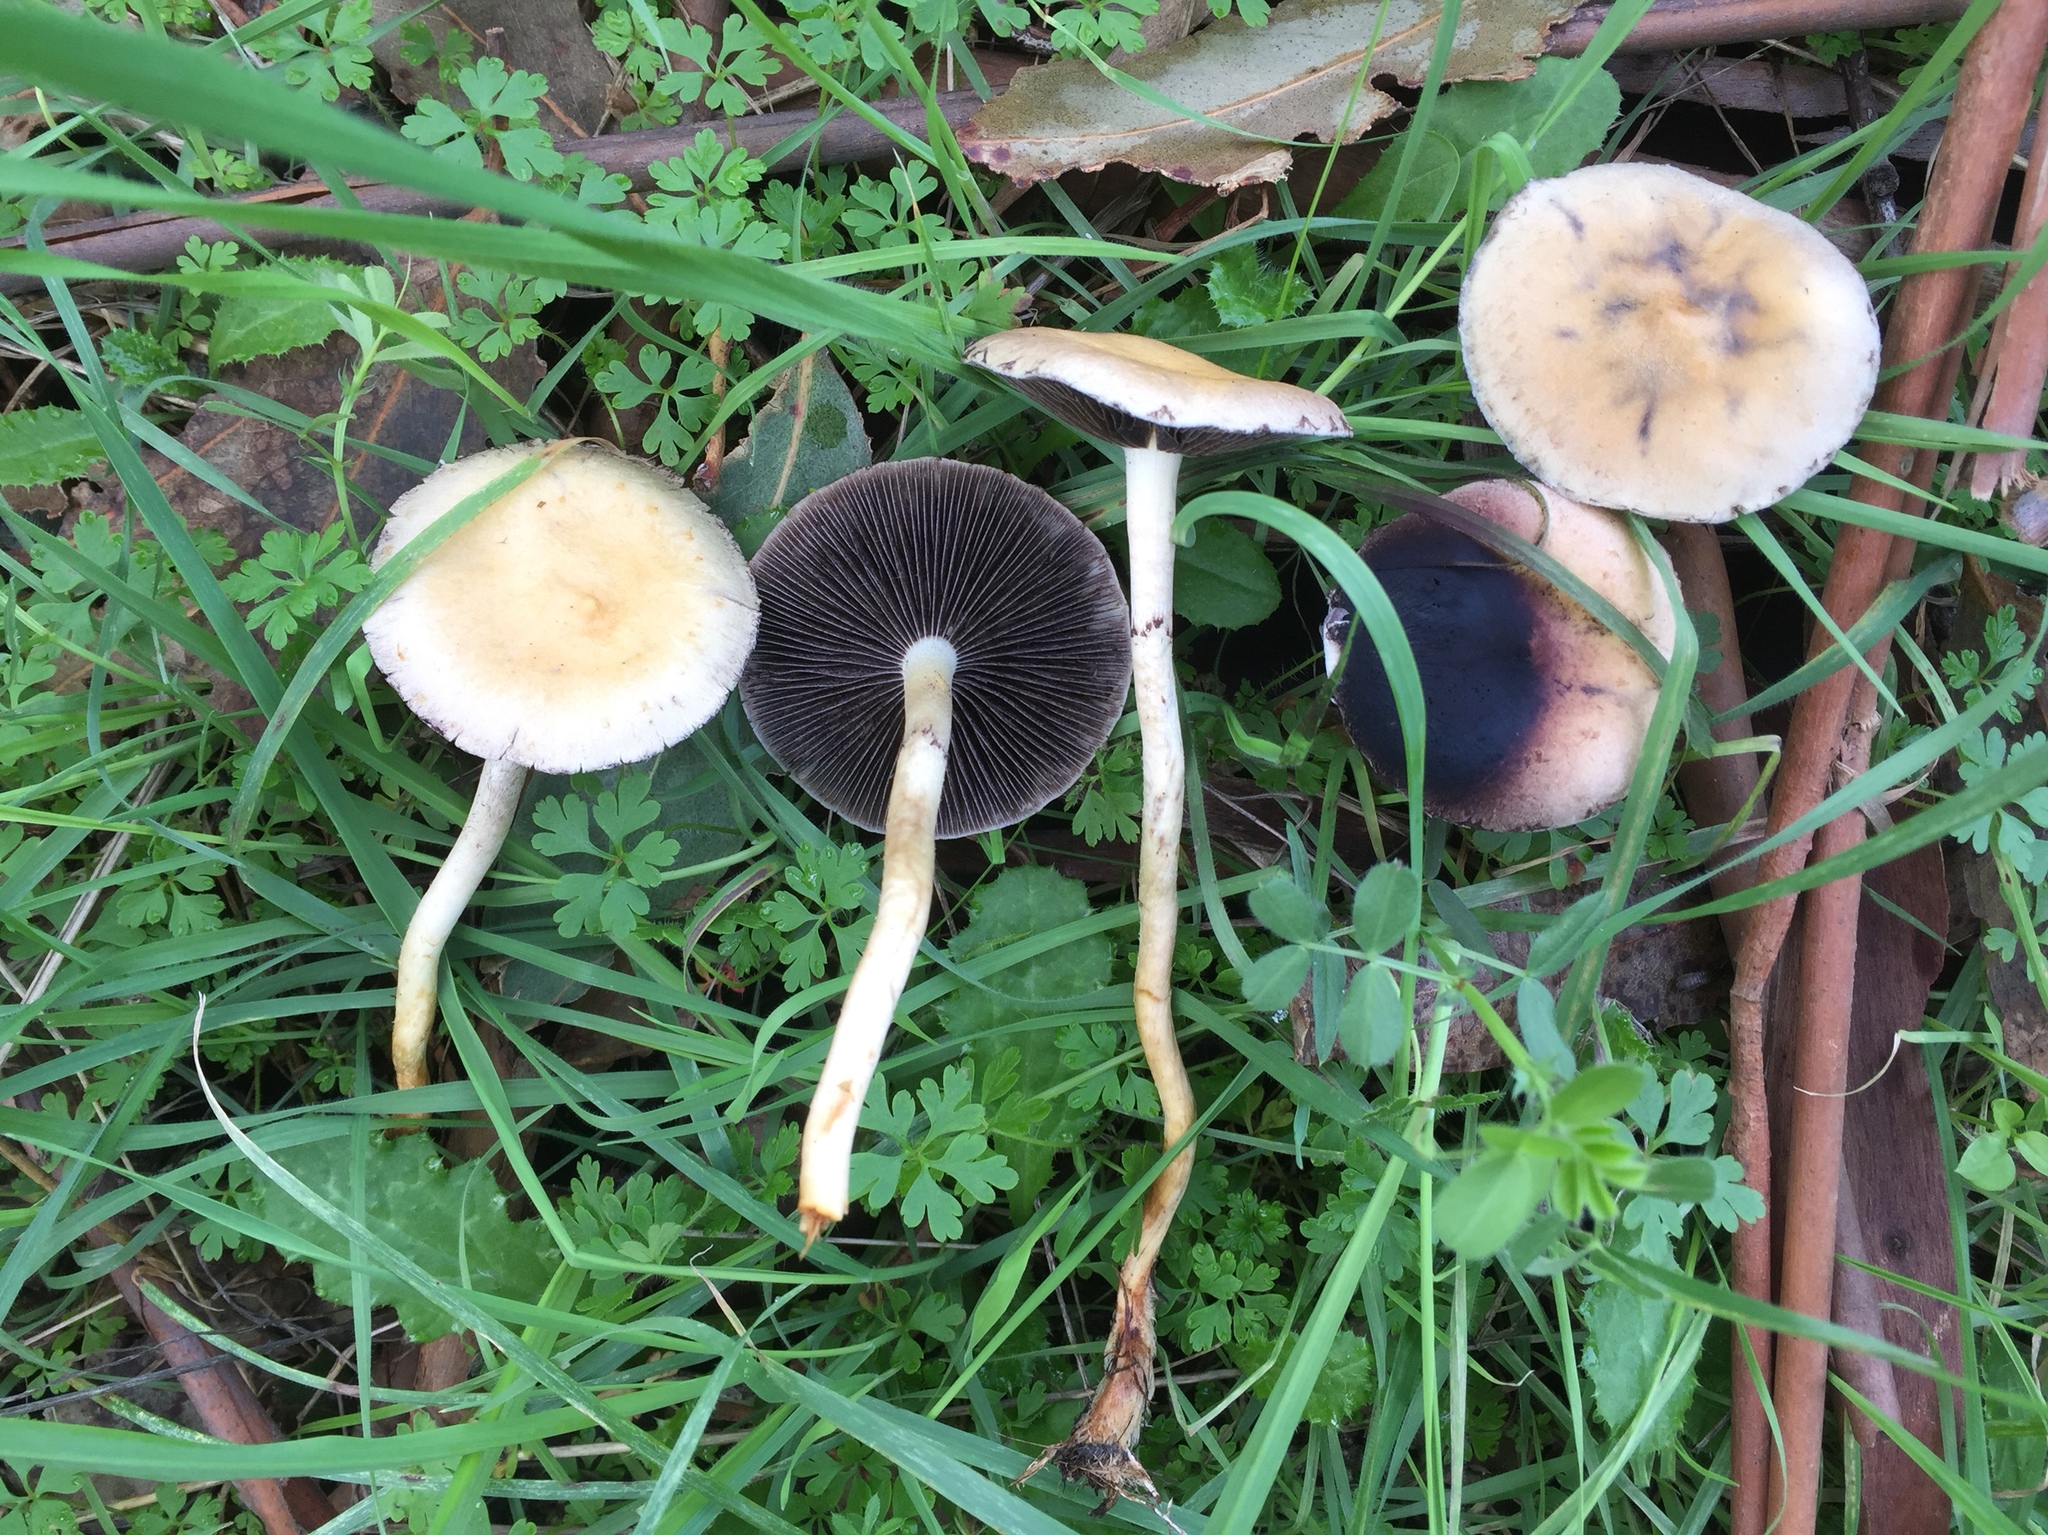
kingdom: Fungi
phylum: Basidiomycota
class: Agaricomycetes
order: Agaricales
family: Strophariaceae
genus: Leratiomyces
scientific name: Leratiomyces percevalii
